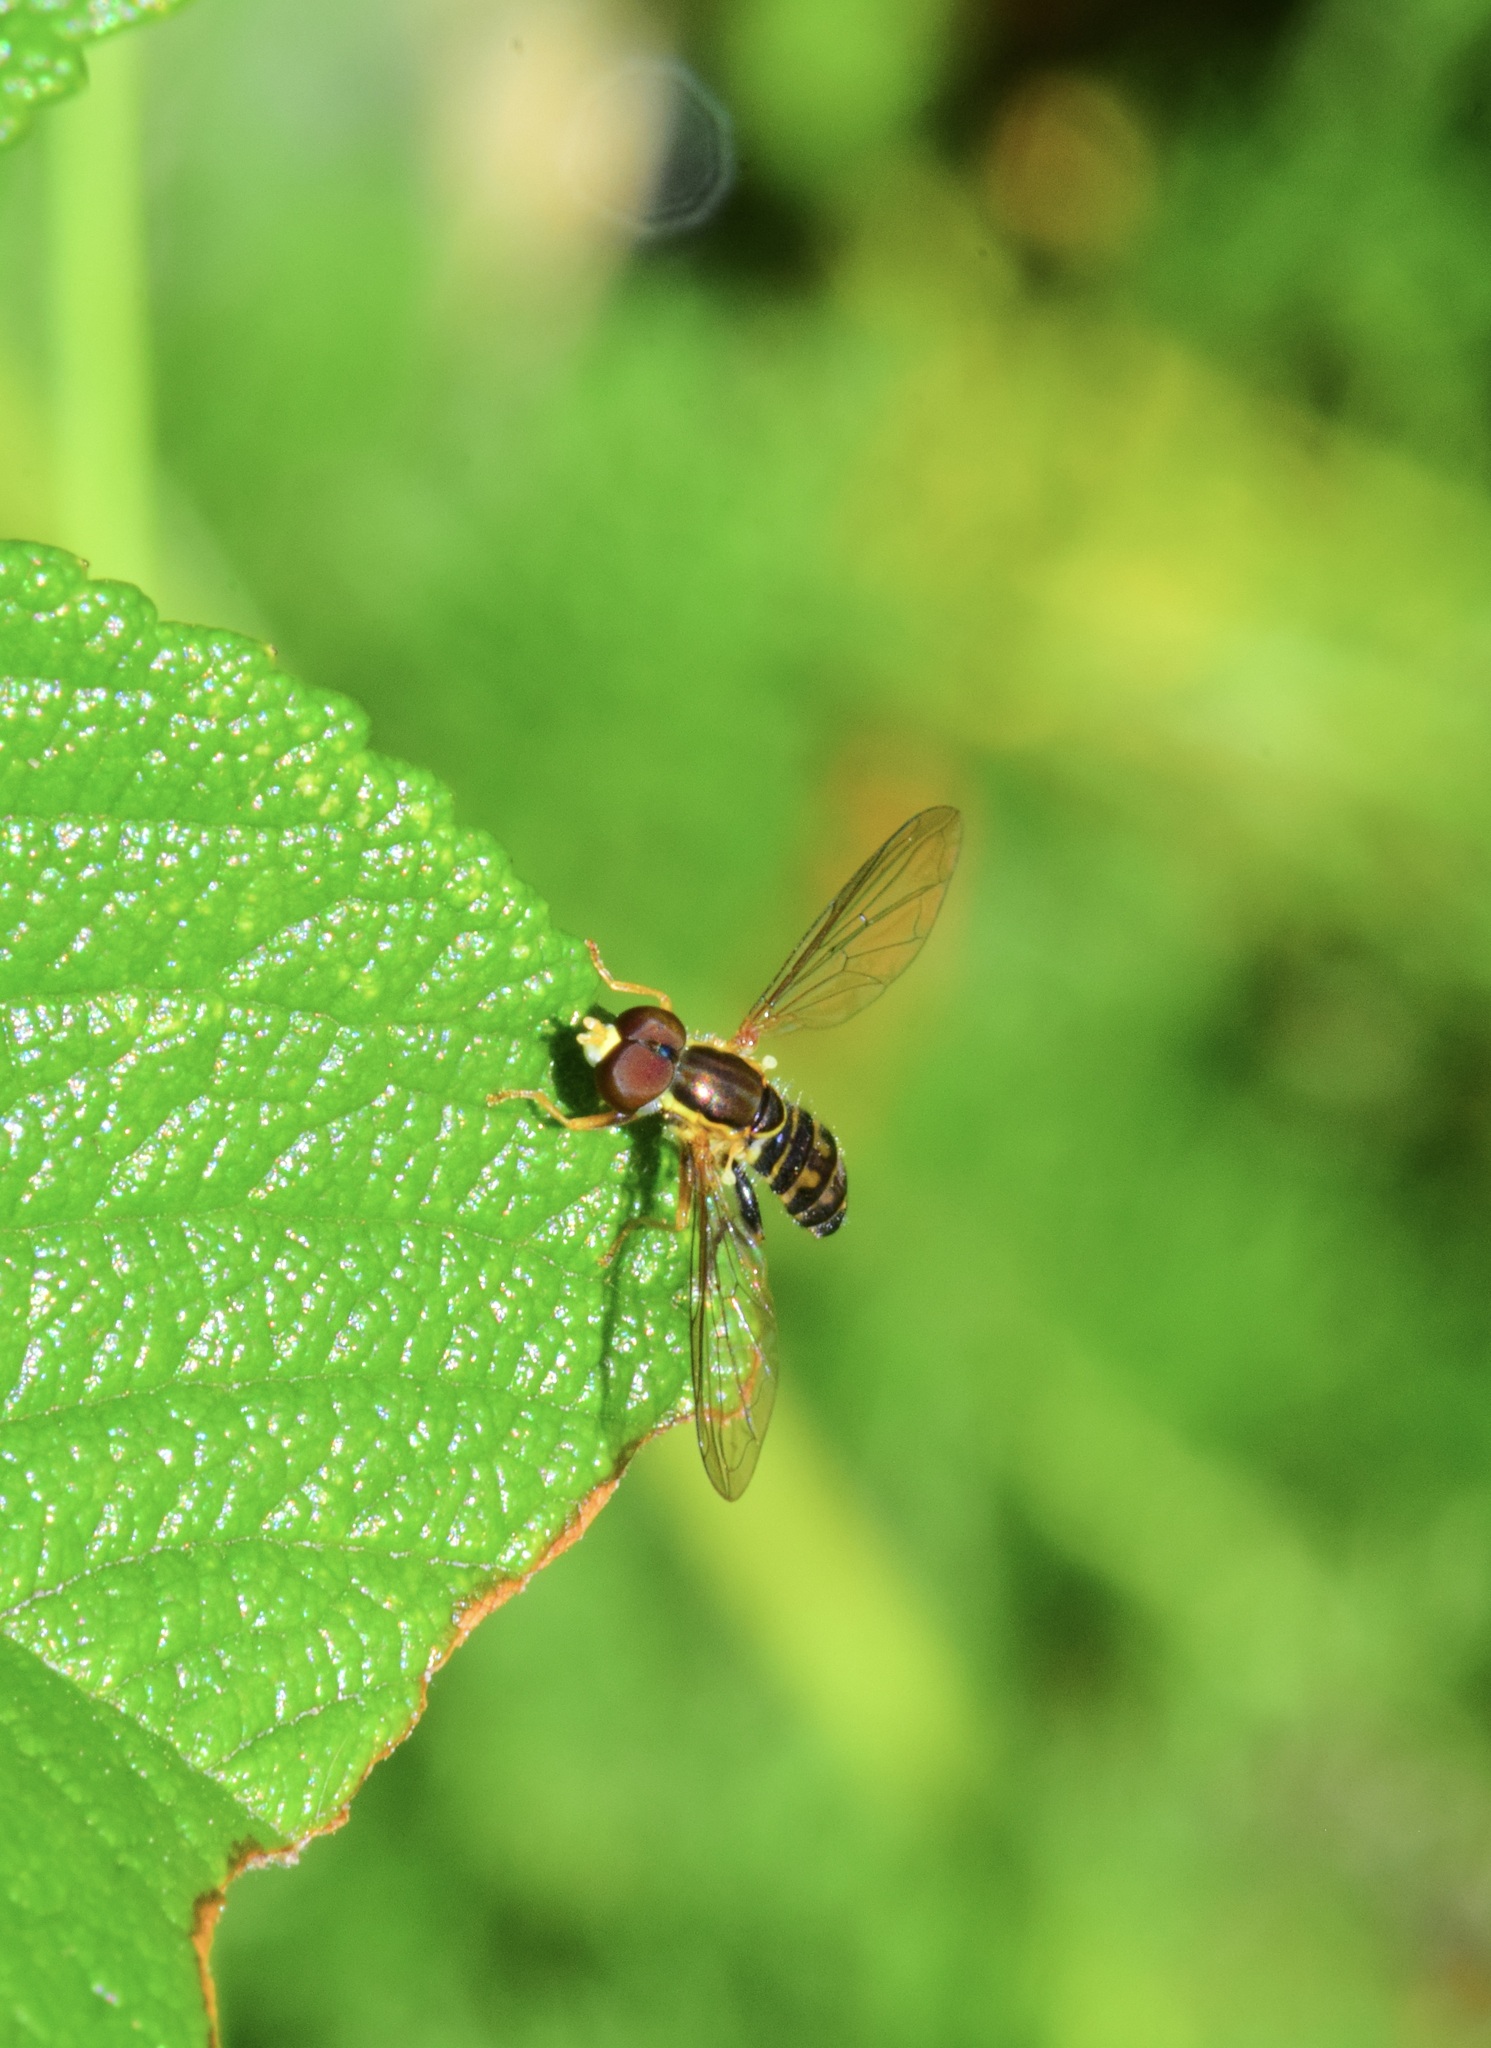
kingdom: Animalia
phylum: Arthropoda
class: Insecta
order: Diptera
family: Syrphidae
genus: Toxomerus
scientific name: Toxomerus geminatus
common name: Eastern calligrapher
